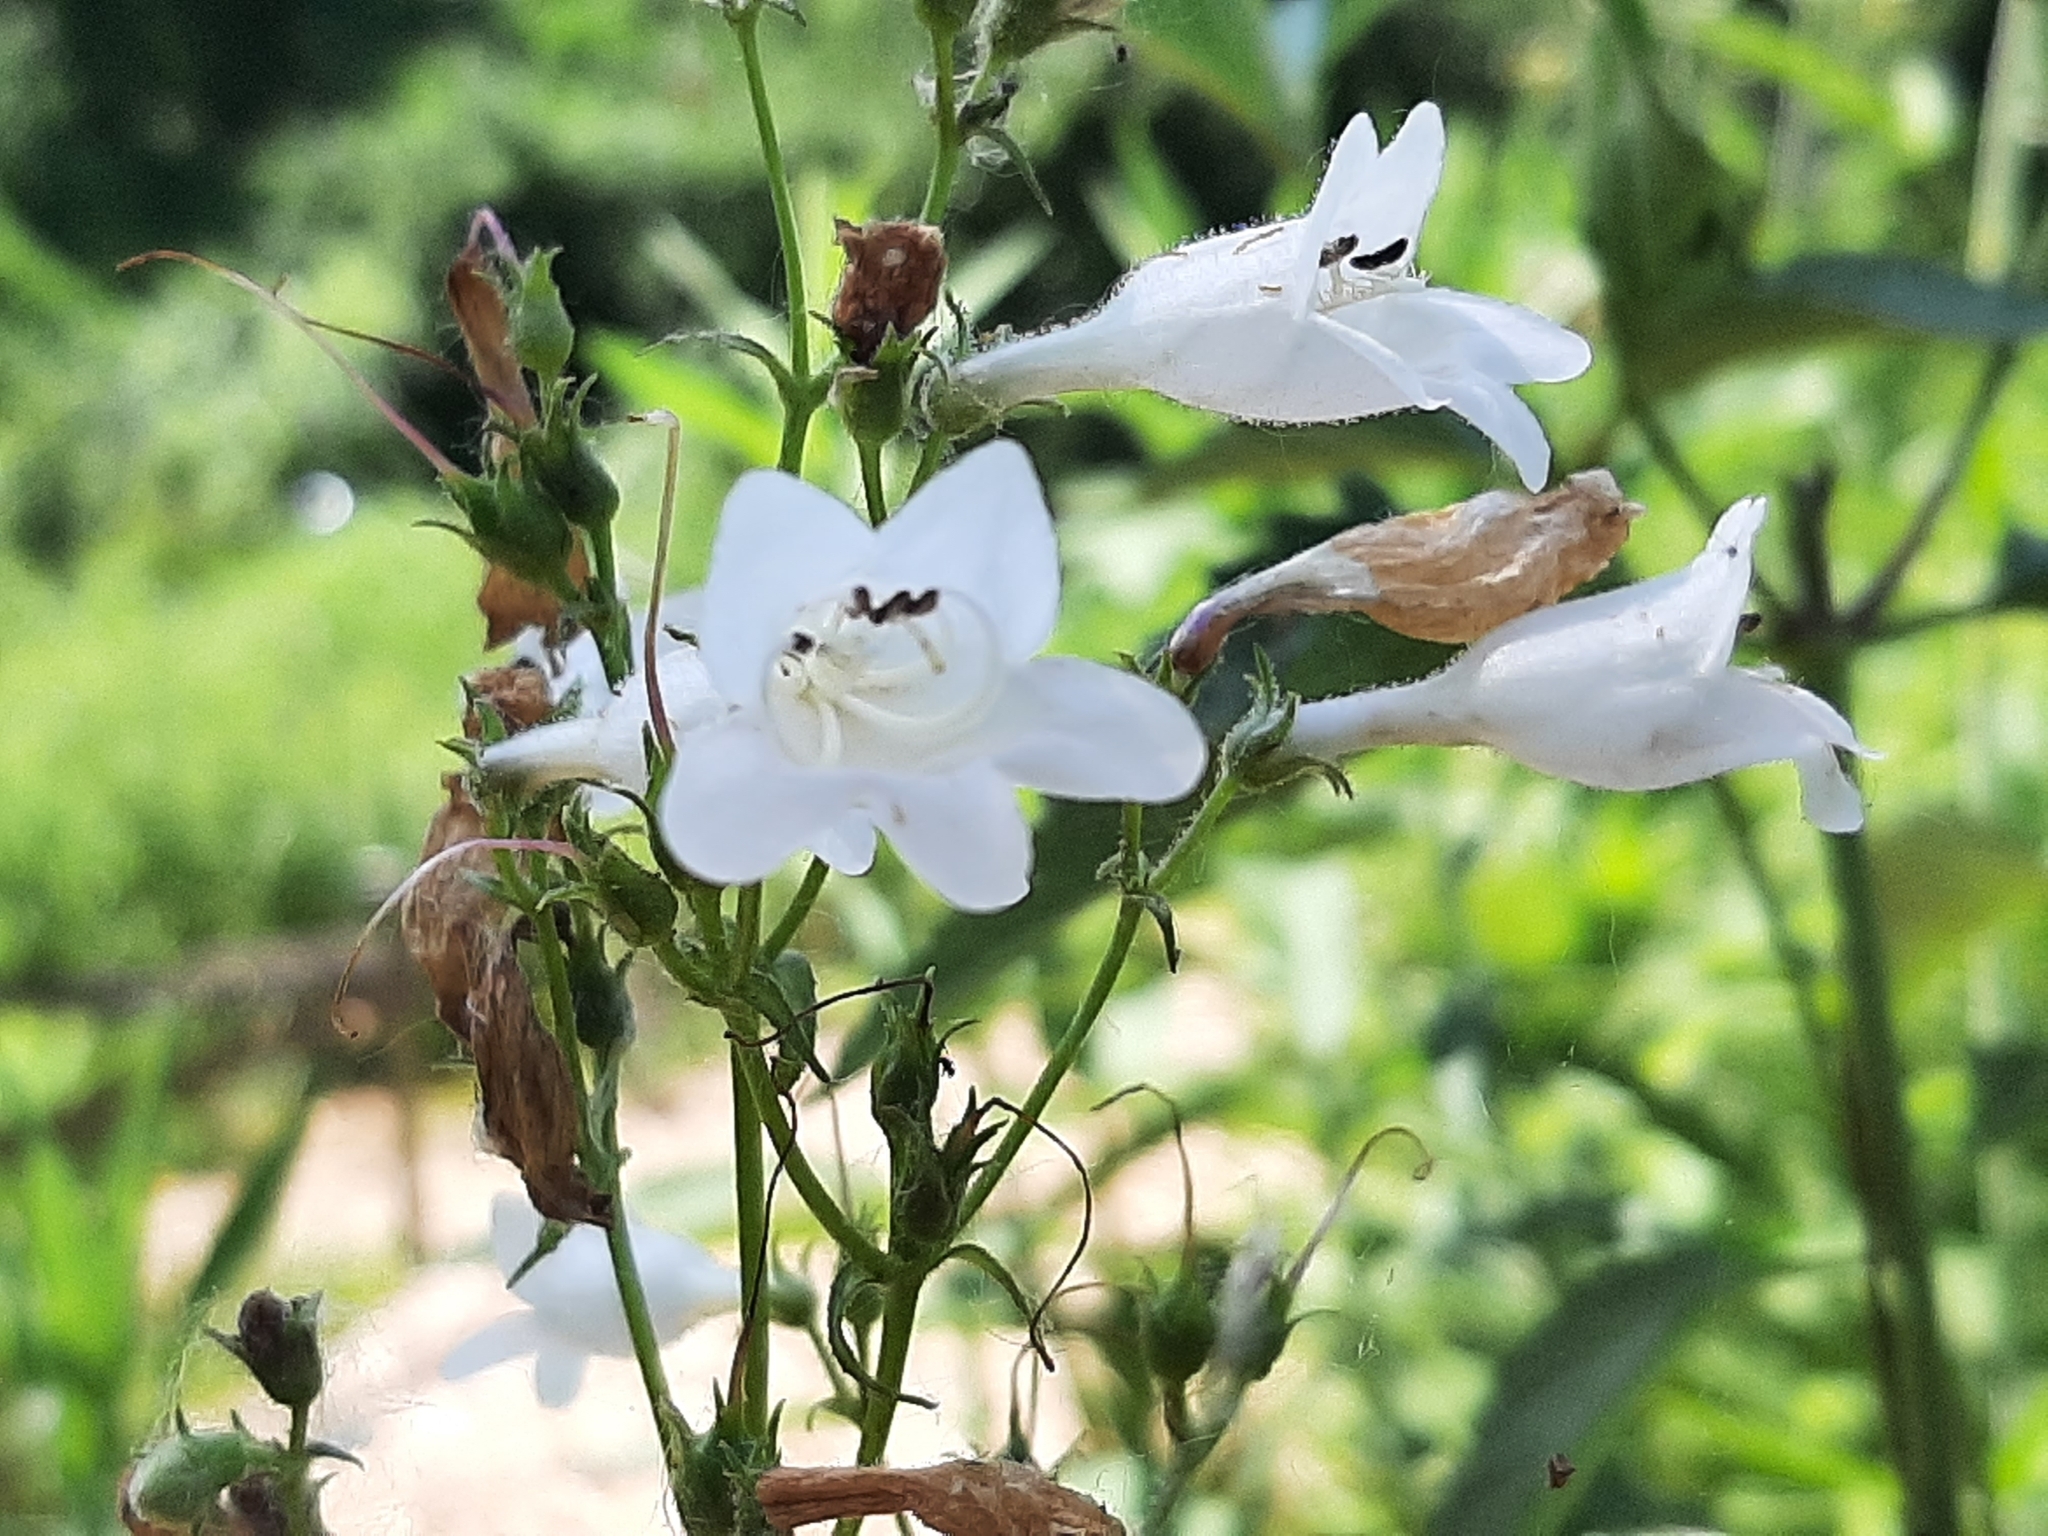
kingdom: Plantae
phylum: Tracheophyta
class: Magnoliopsida
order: Lamiales
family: Plantaginaceae
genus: Penstemon
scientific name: Penstemon digitalis
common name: Foxglove beardtongue
